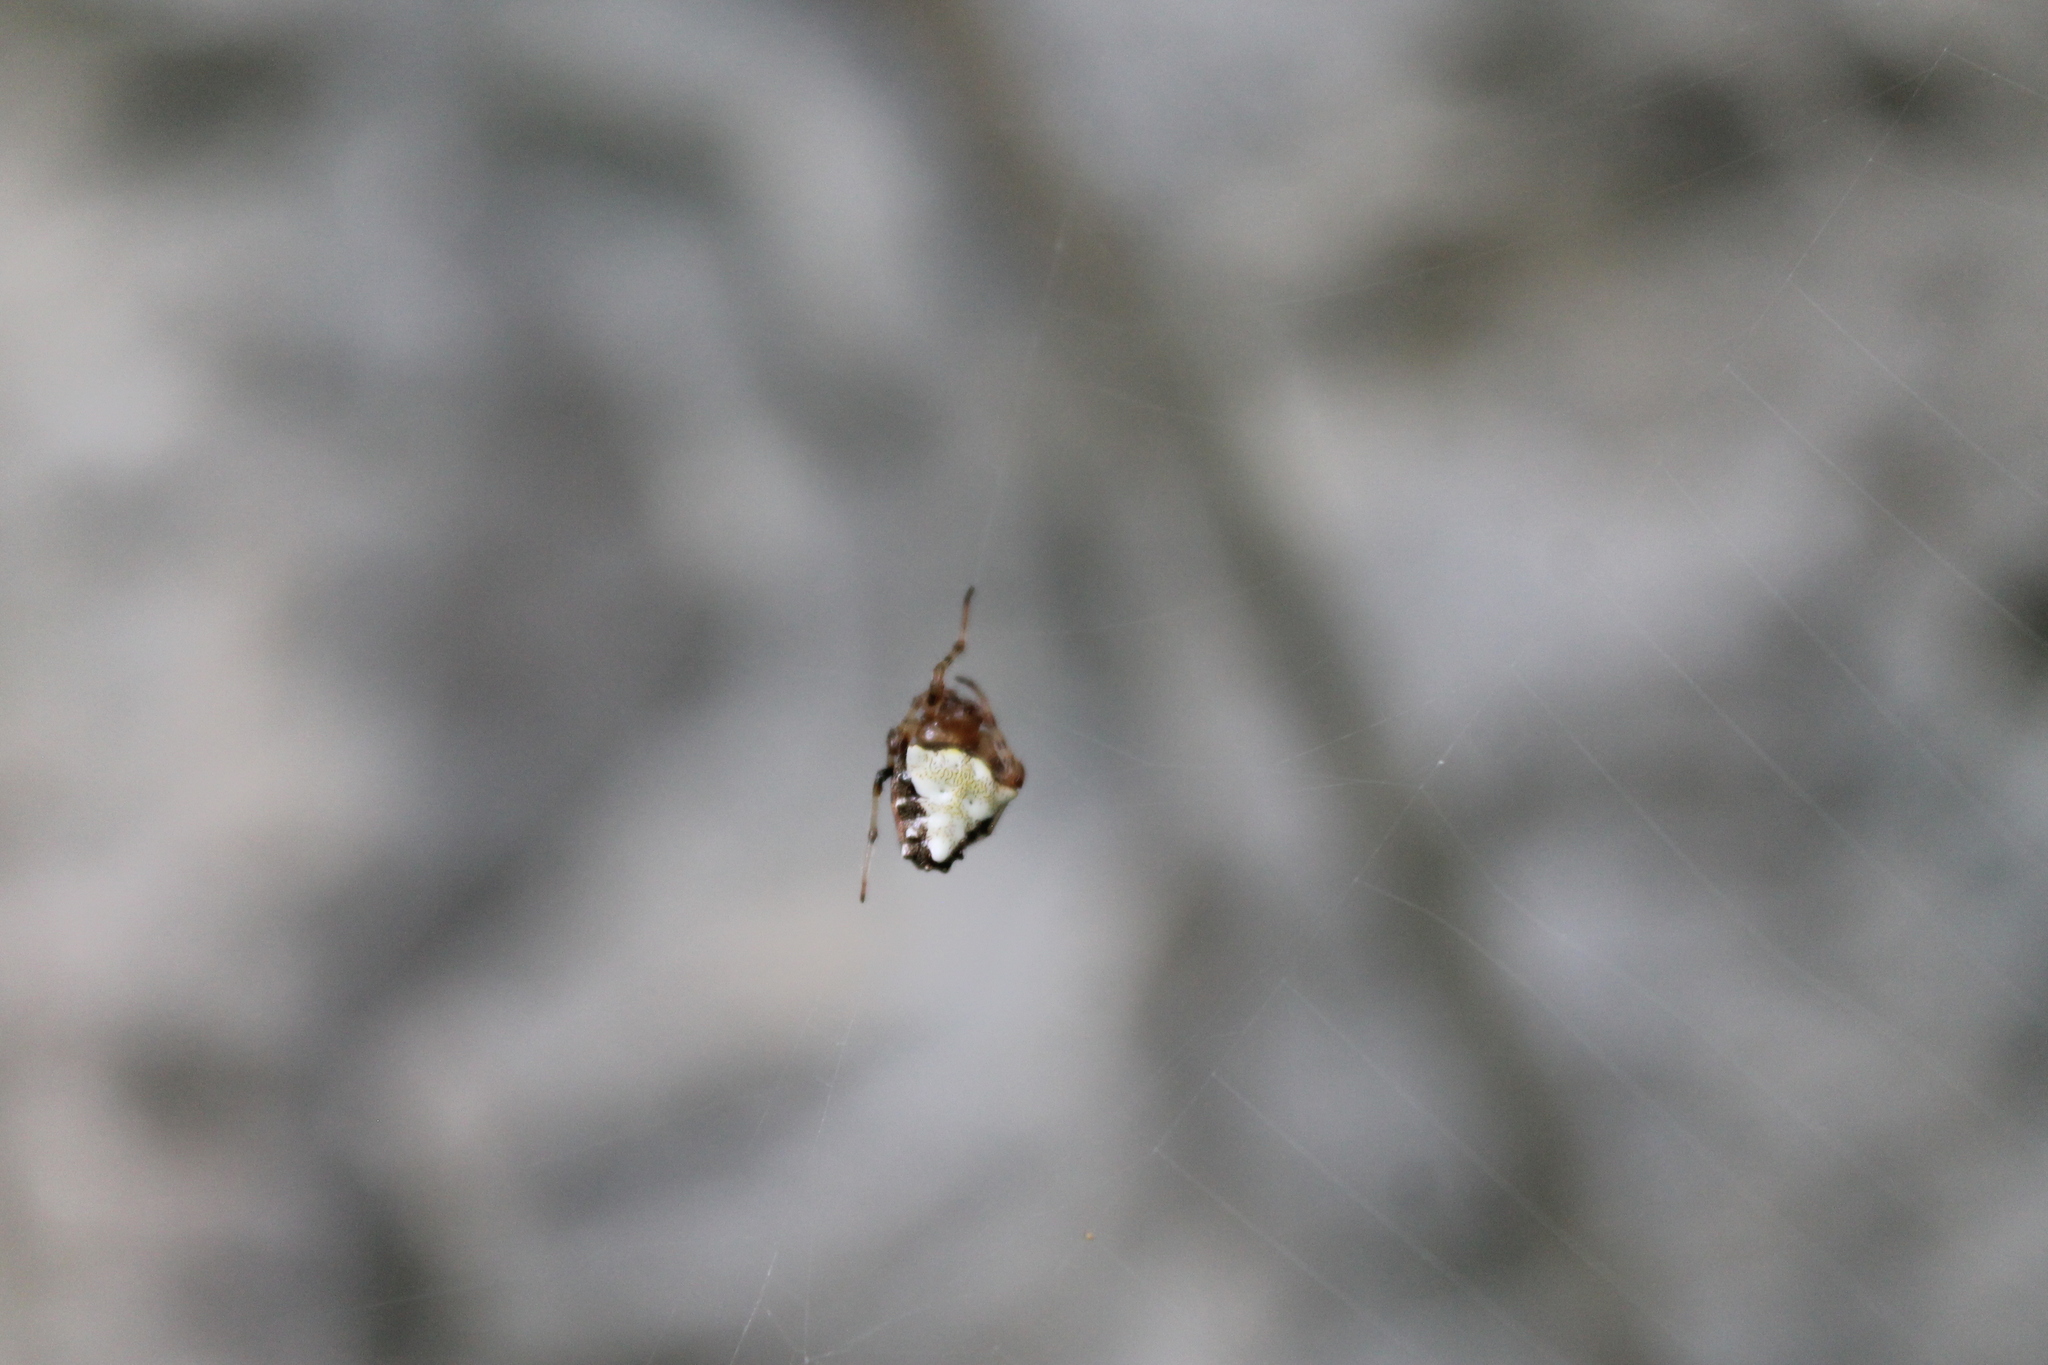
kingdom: Animalia
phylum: Arthropoda
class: Arachnida
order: Araneae
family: Araneidae
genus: Verrucosa
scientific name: Verrucosa arenata
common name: Orb weavers
